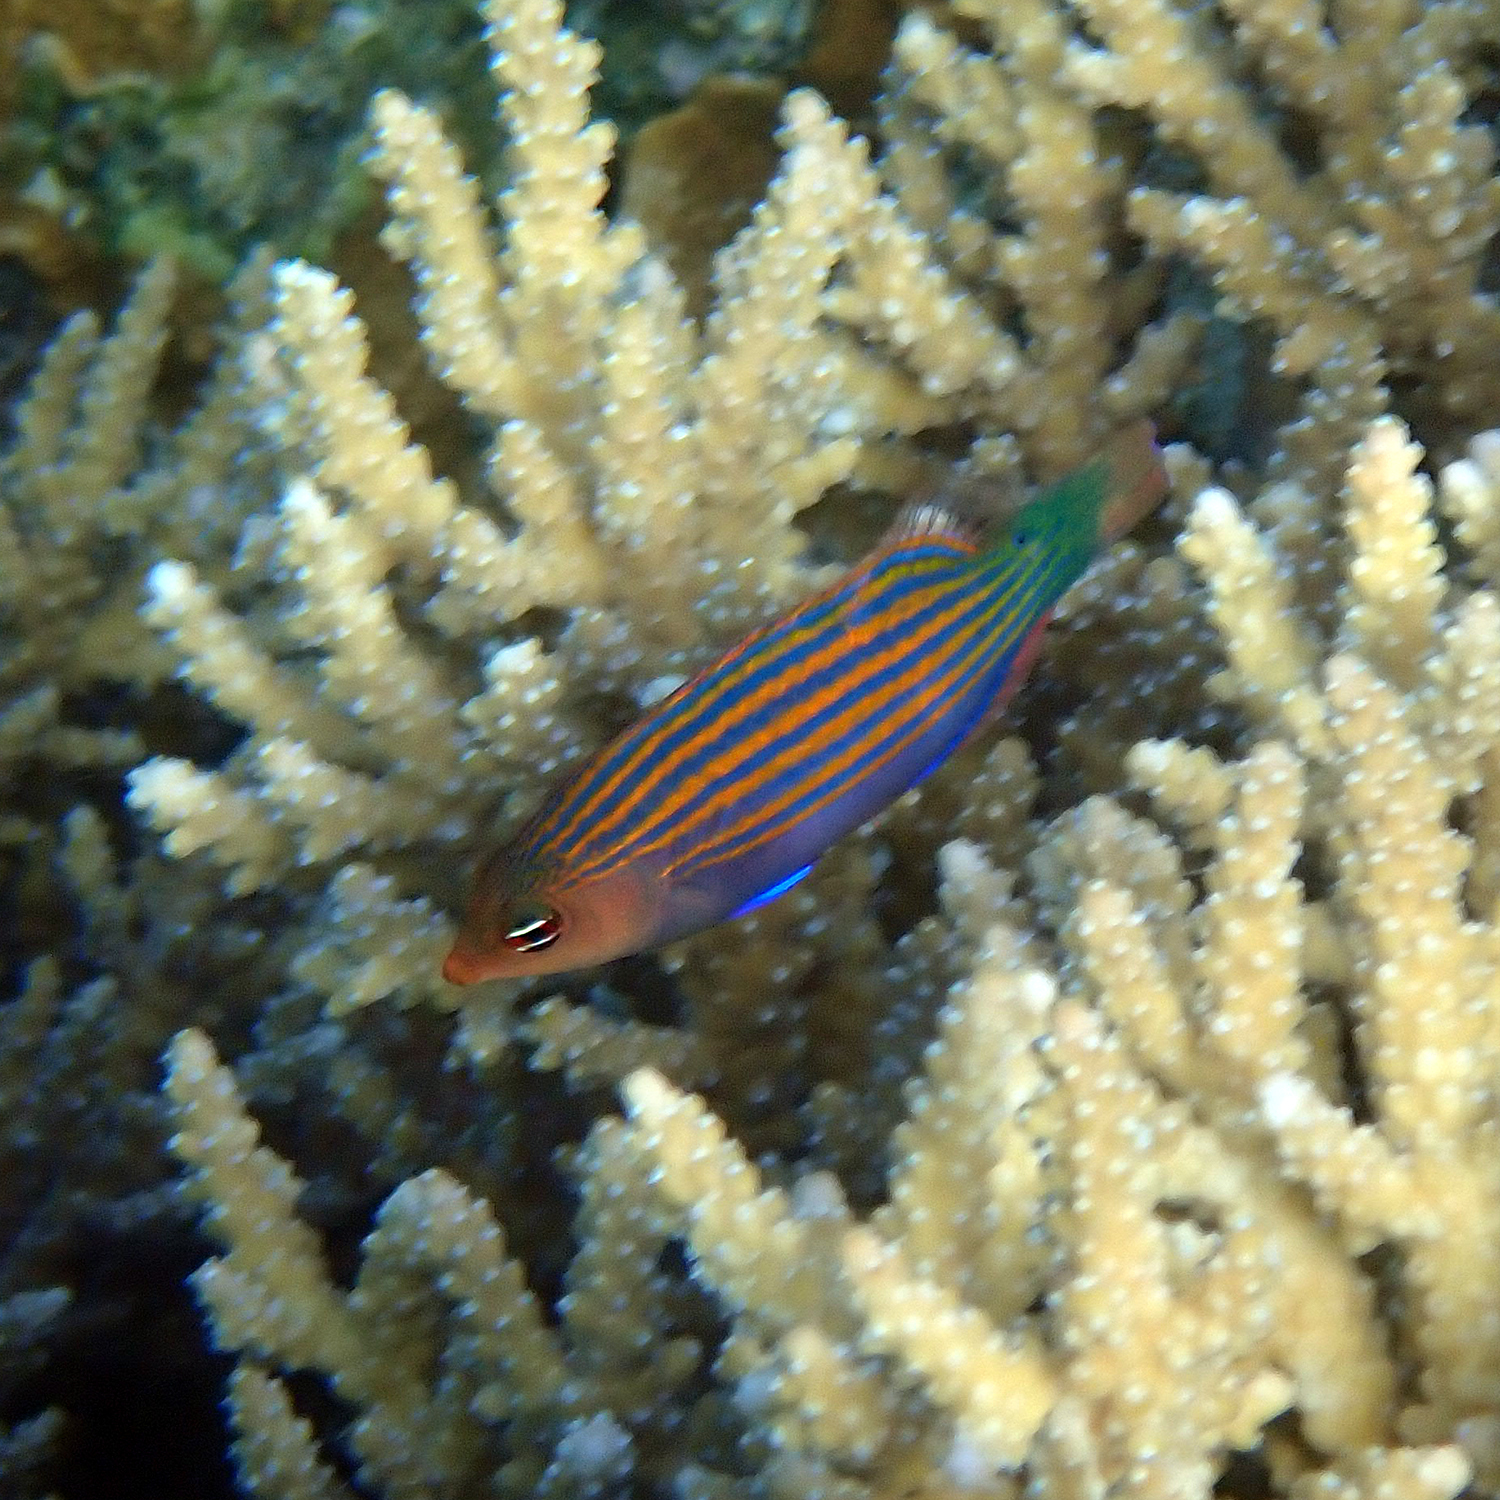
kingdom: Animalia
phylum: Chordata
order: Perciformes
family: Labridae
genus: Pseudocheilinus
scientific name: Pseudocheilinus hexataenia
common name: Sixline wrasse
